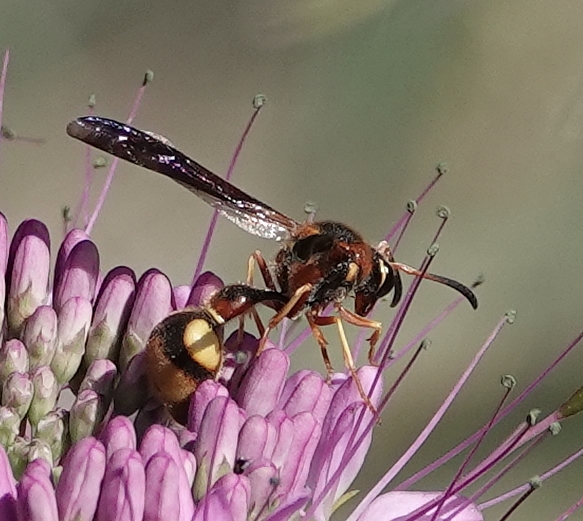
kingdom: Animalia
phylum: Arthropoda
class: Insecta
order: Hymenoptera
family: Vespidae
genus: Eumenes
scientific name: Eumenes bollii
